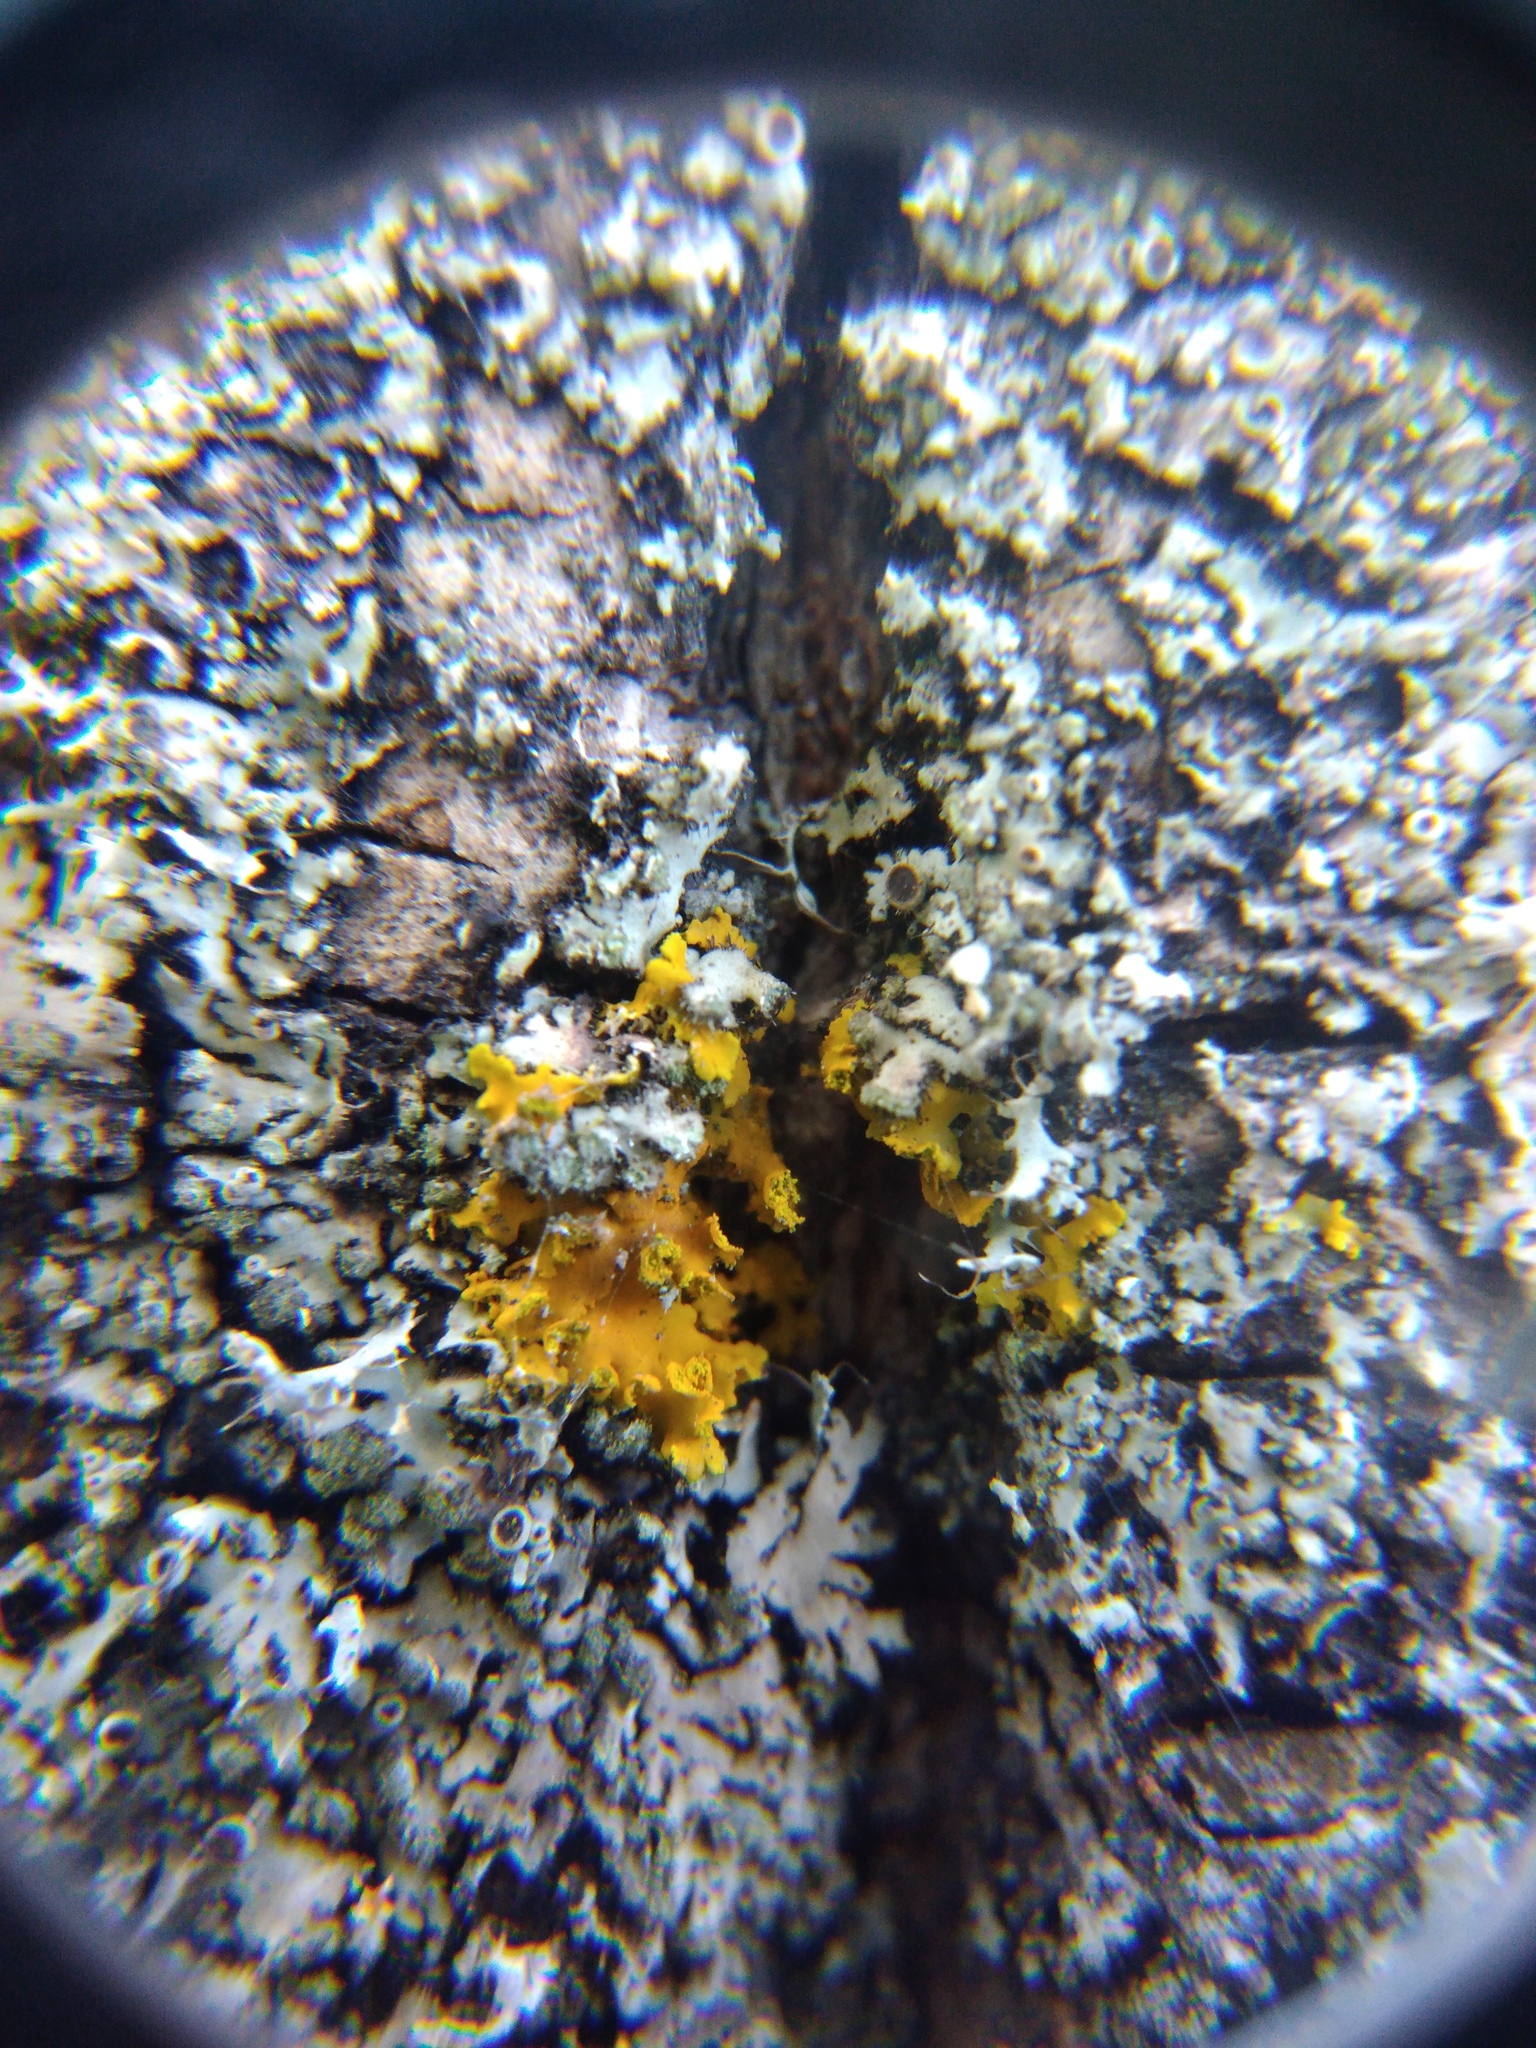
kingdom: Fungi
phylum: Ascomycota
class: Lecanoromycetes
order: Teloschistales
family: Teloschistaceae
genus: Xanthomendoza
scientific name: Xanthomendoza huculica
